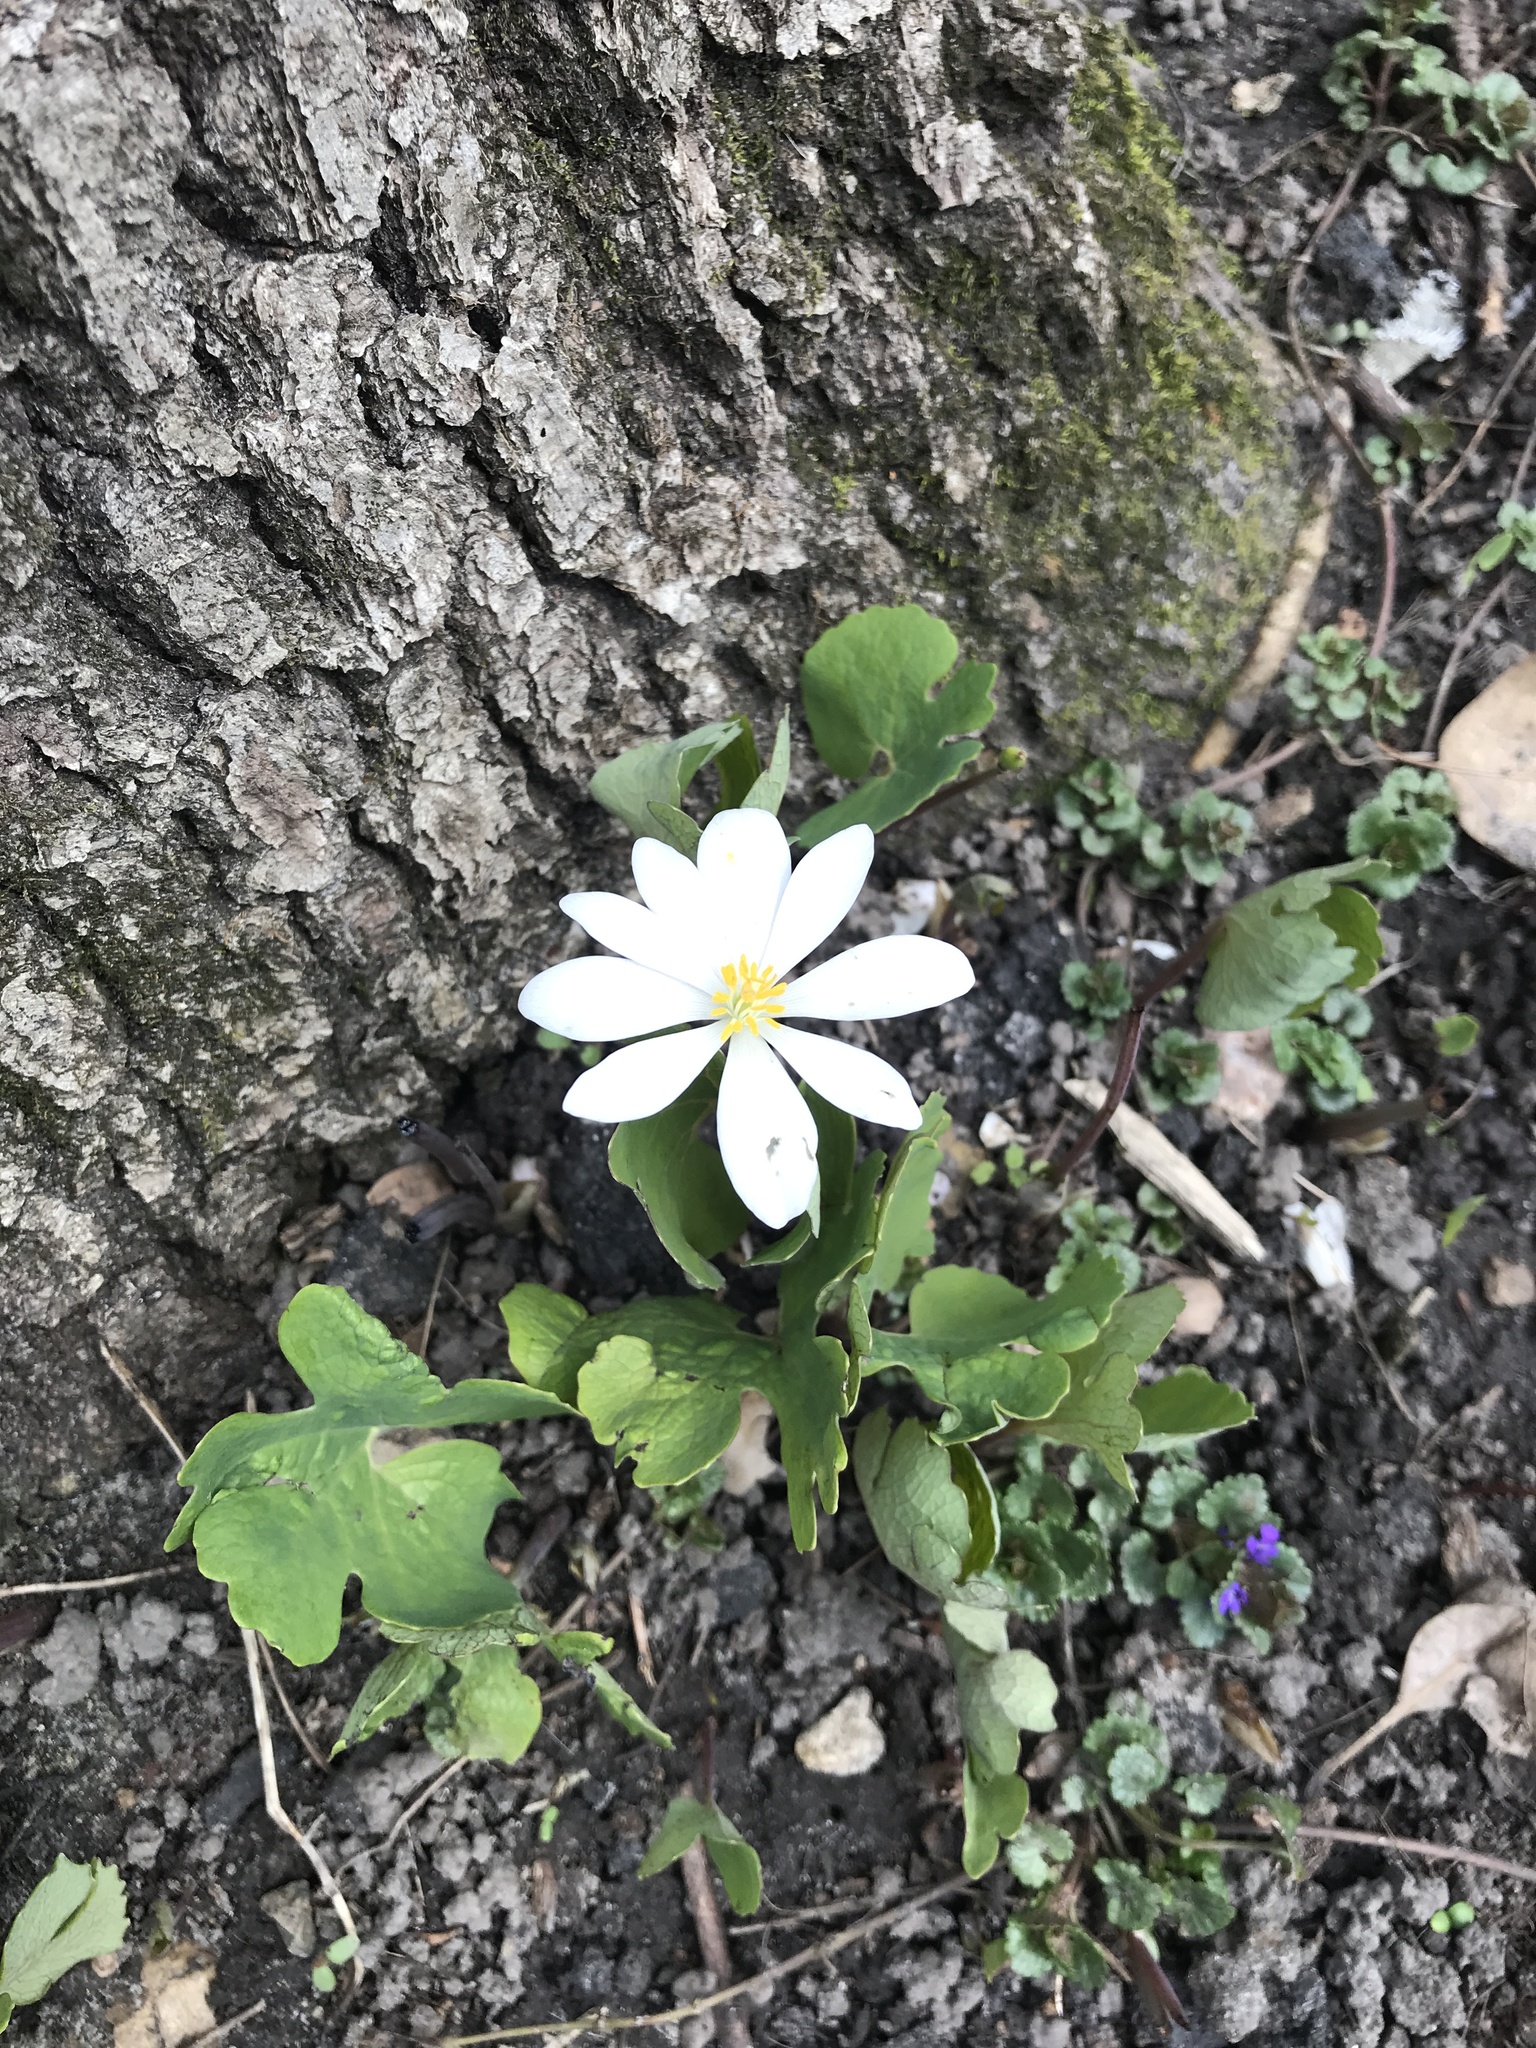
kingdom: Plantae
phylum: Tracheophyta
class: Magnoliopsida
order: Ranunculales
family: Papaveraceae
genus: Sanguinaria
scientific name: Sanguinaria canadensis
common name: Bloodroot
